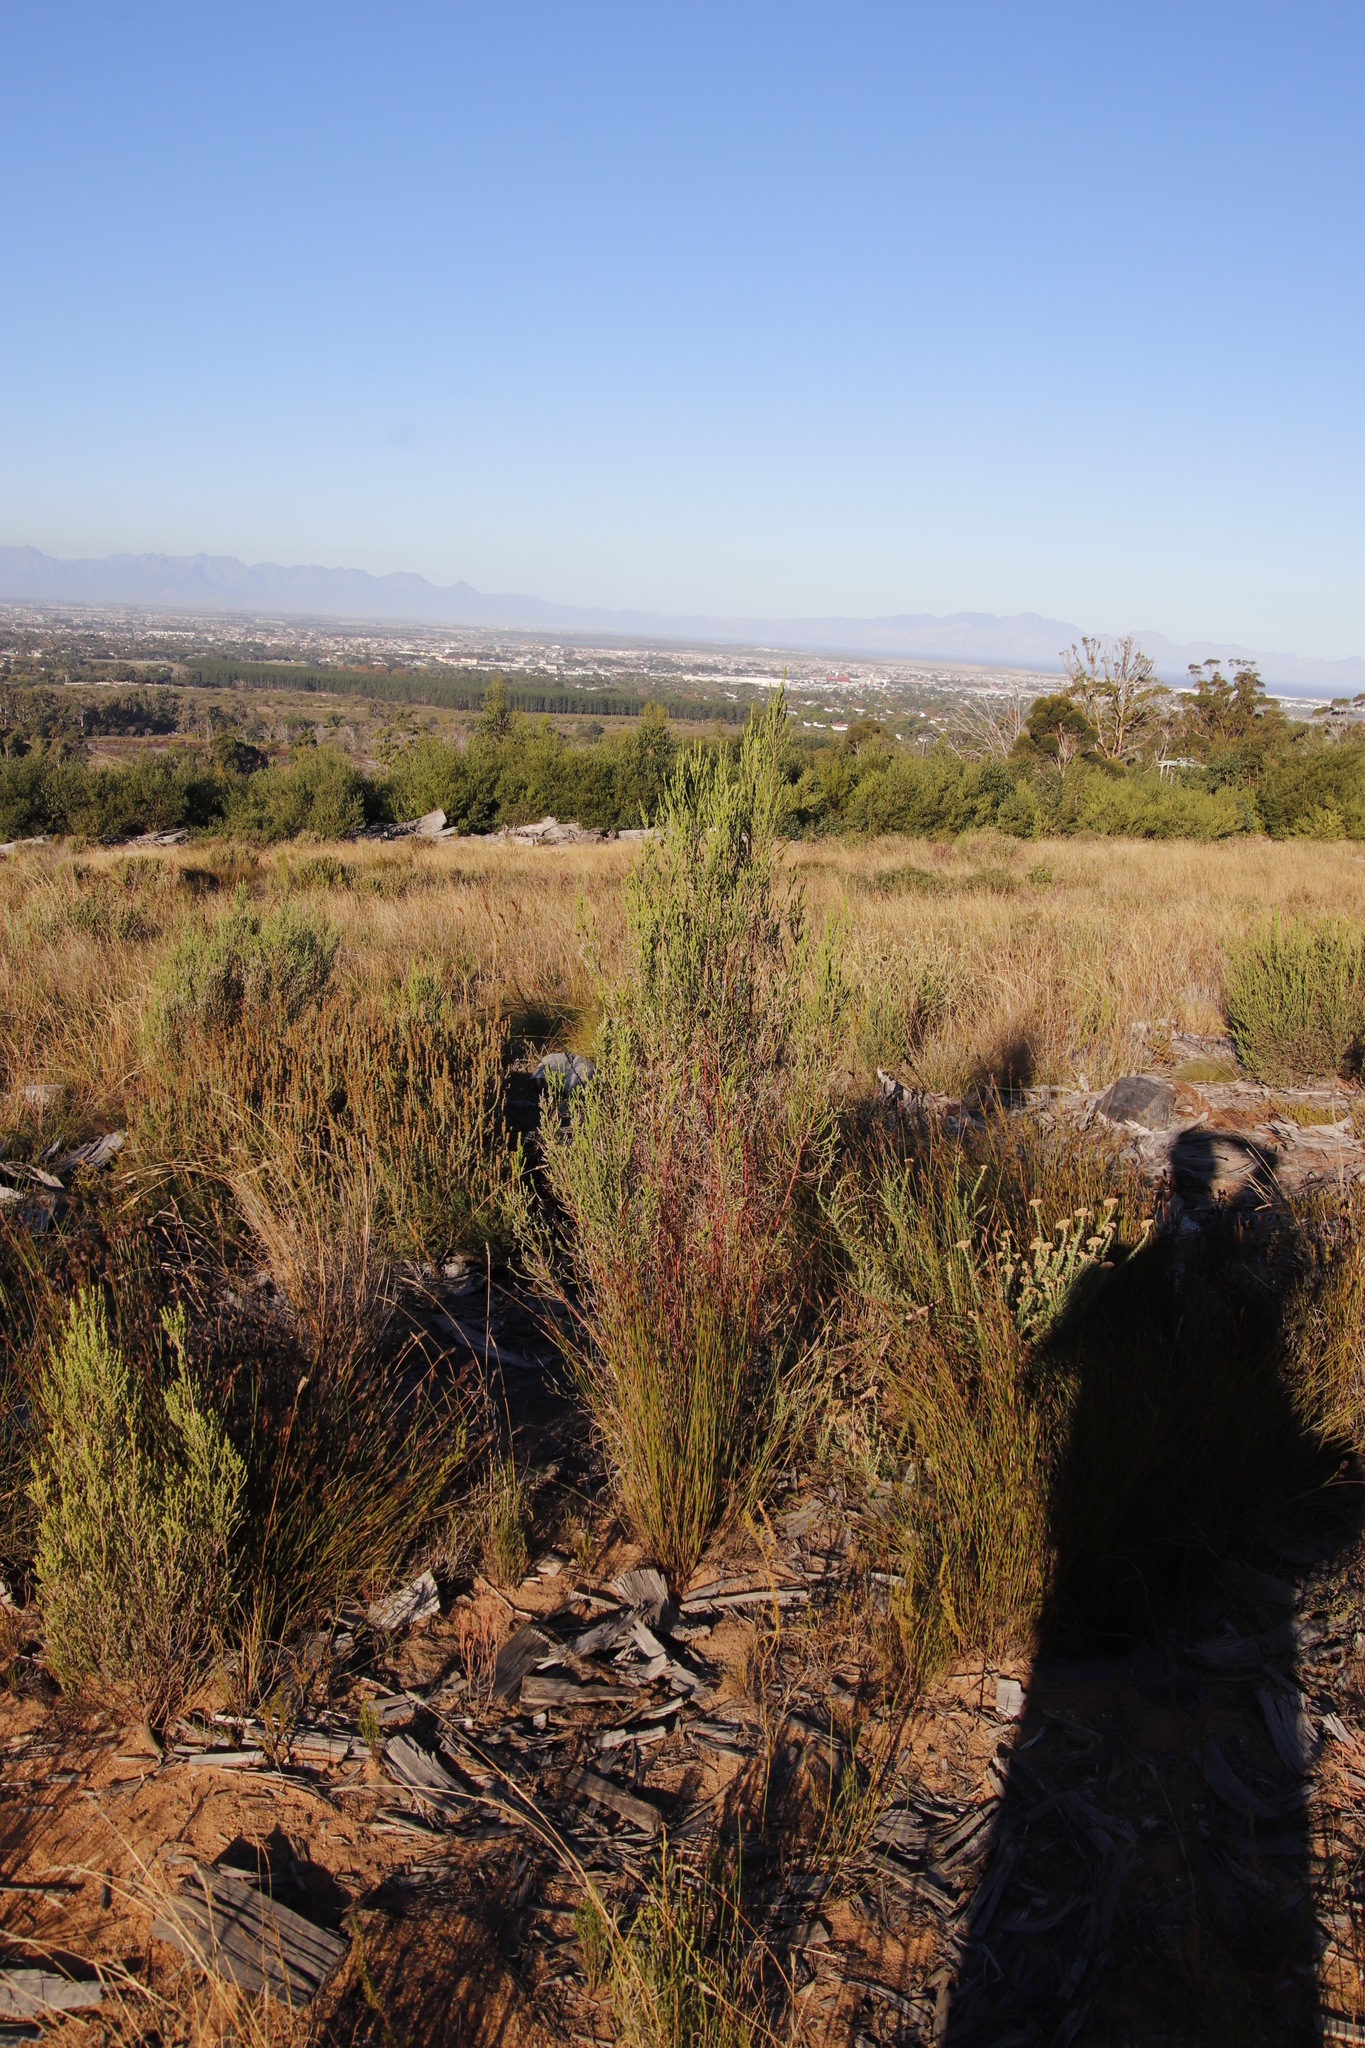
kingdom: Plantae
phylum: Tracheophyta
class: Magnoliopsida
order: Malvales
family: Thymelaeaceae
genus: Passerina
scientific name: Passerina corymbosa
